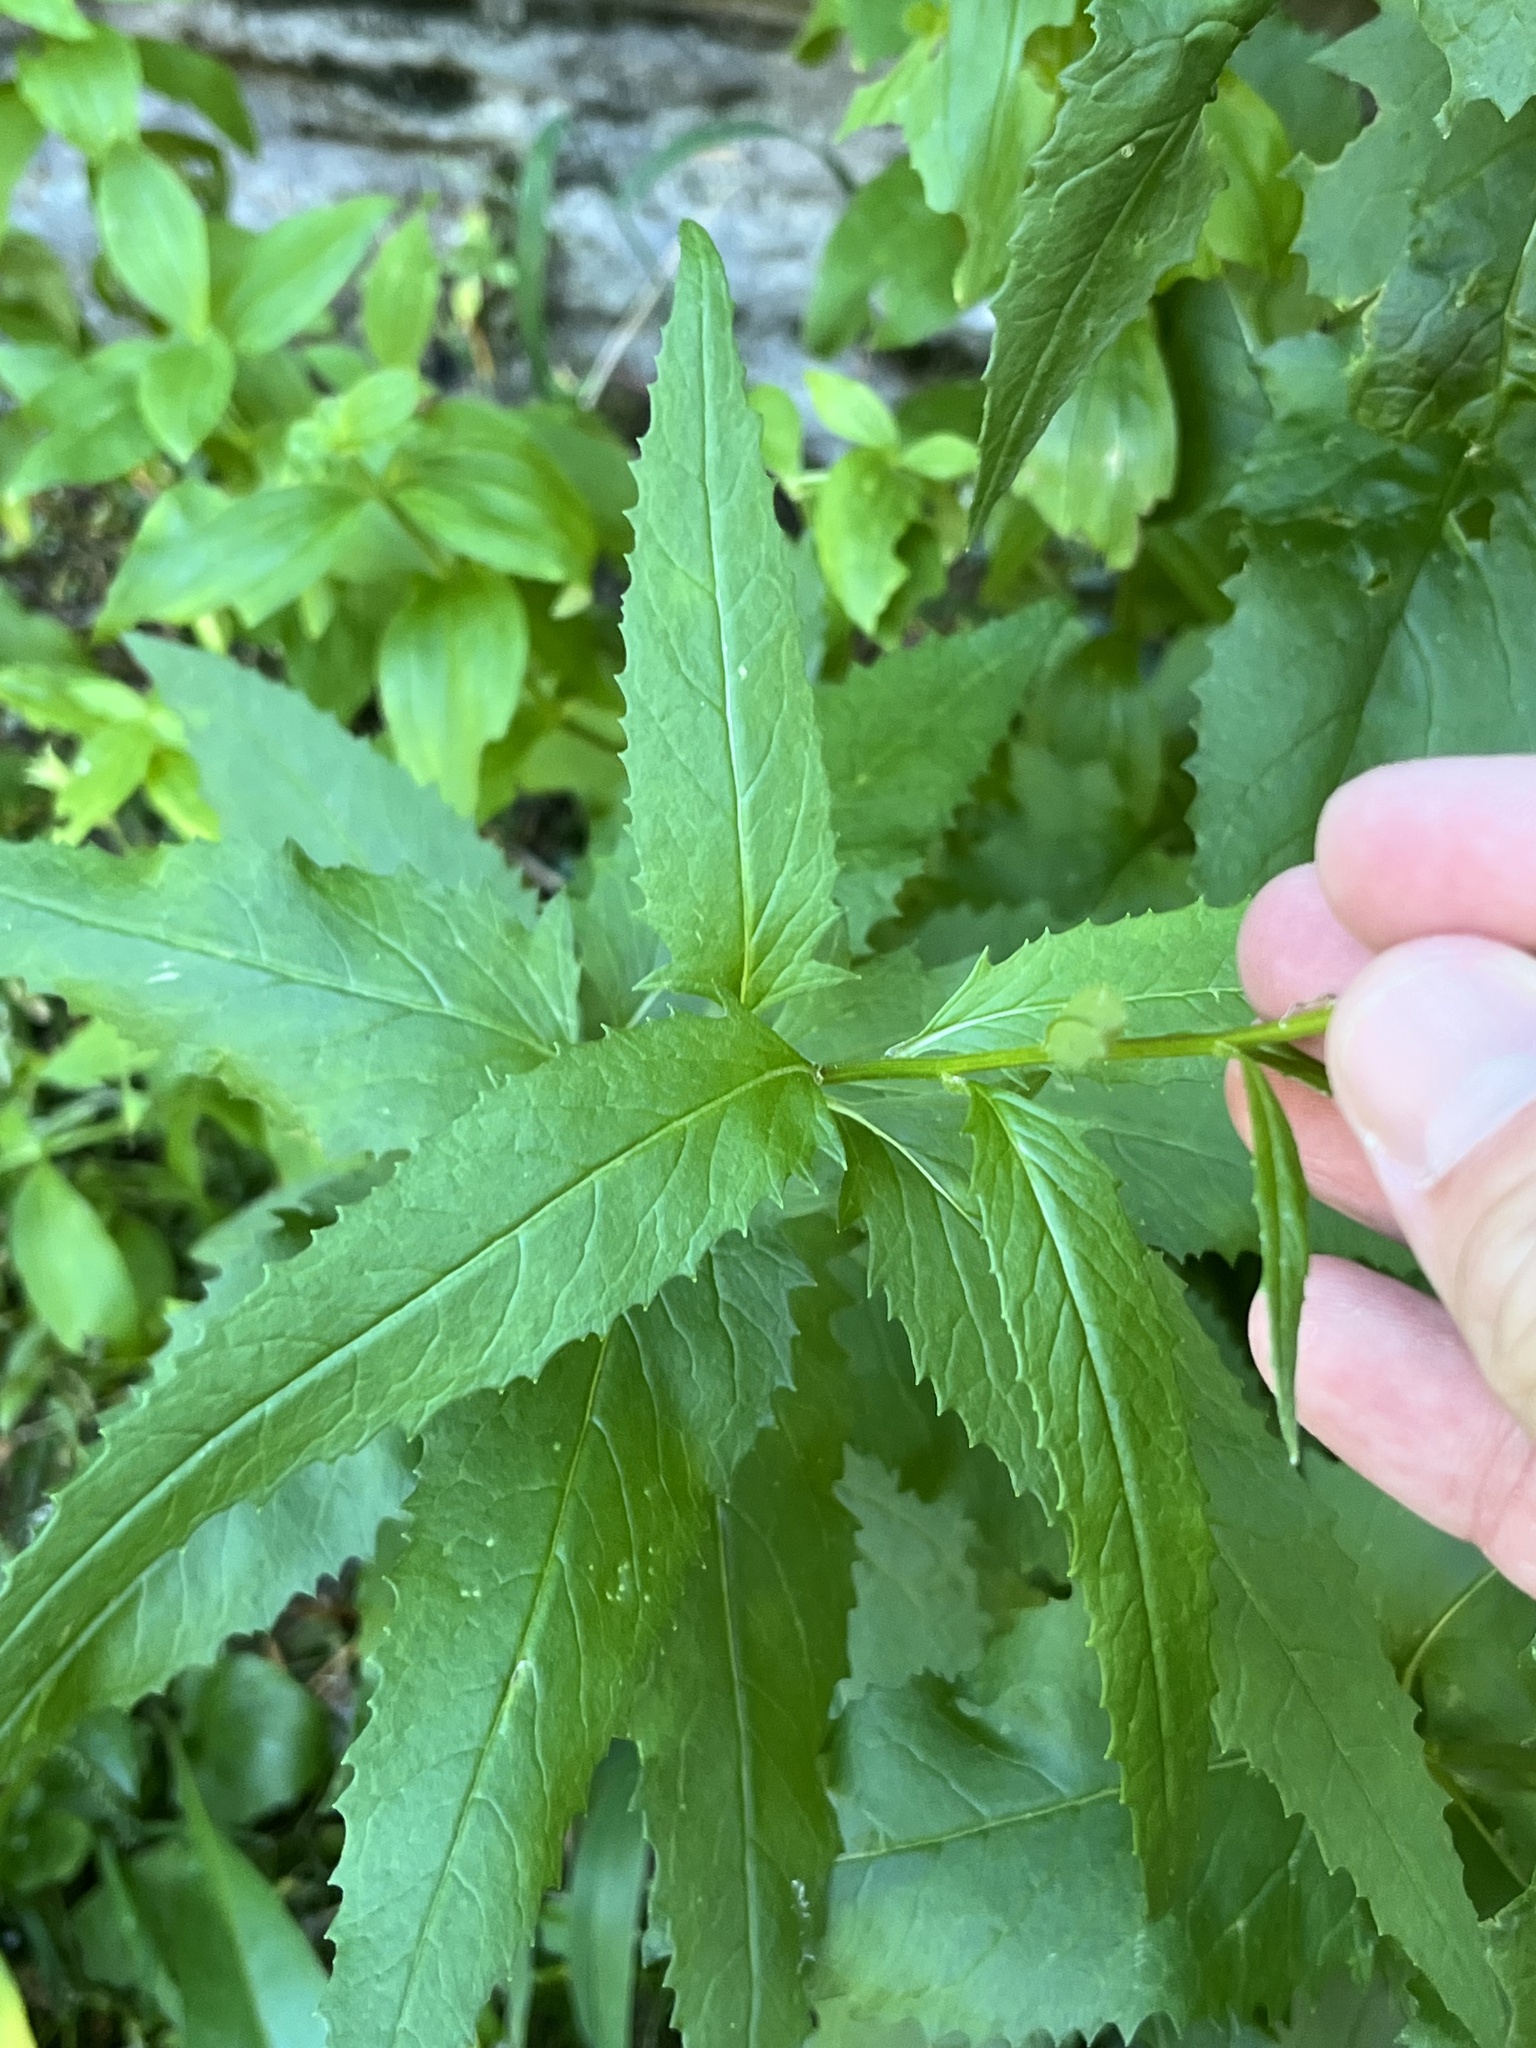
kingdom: Plantae
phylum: Tracheophyta
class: Magnoliopsida
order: Asterales
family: Asteraceae
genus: Senecio
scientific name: Senecio triangularis
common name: Arrowleaf butterweed
